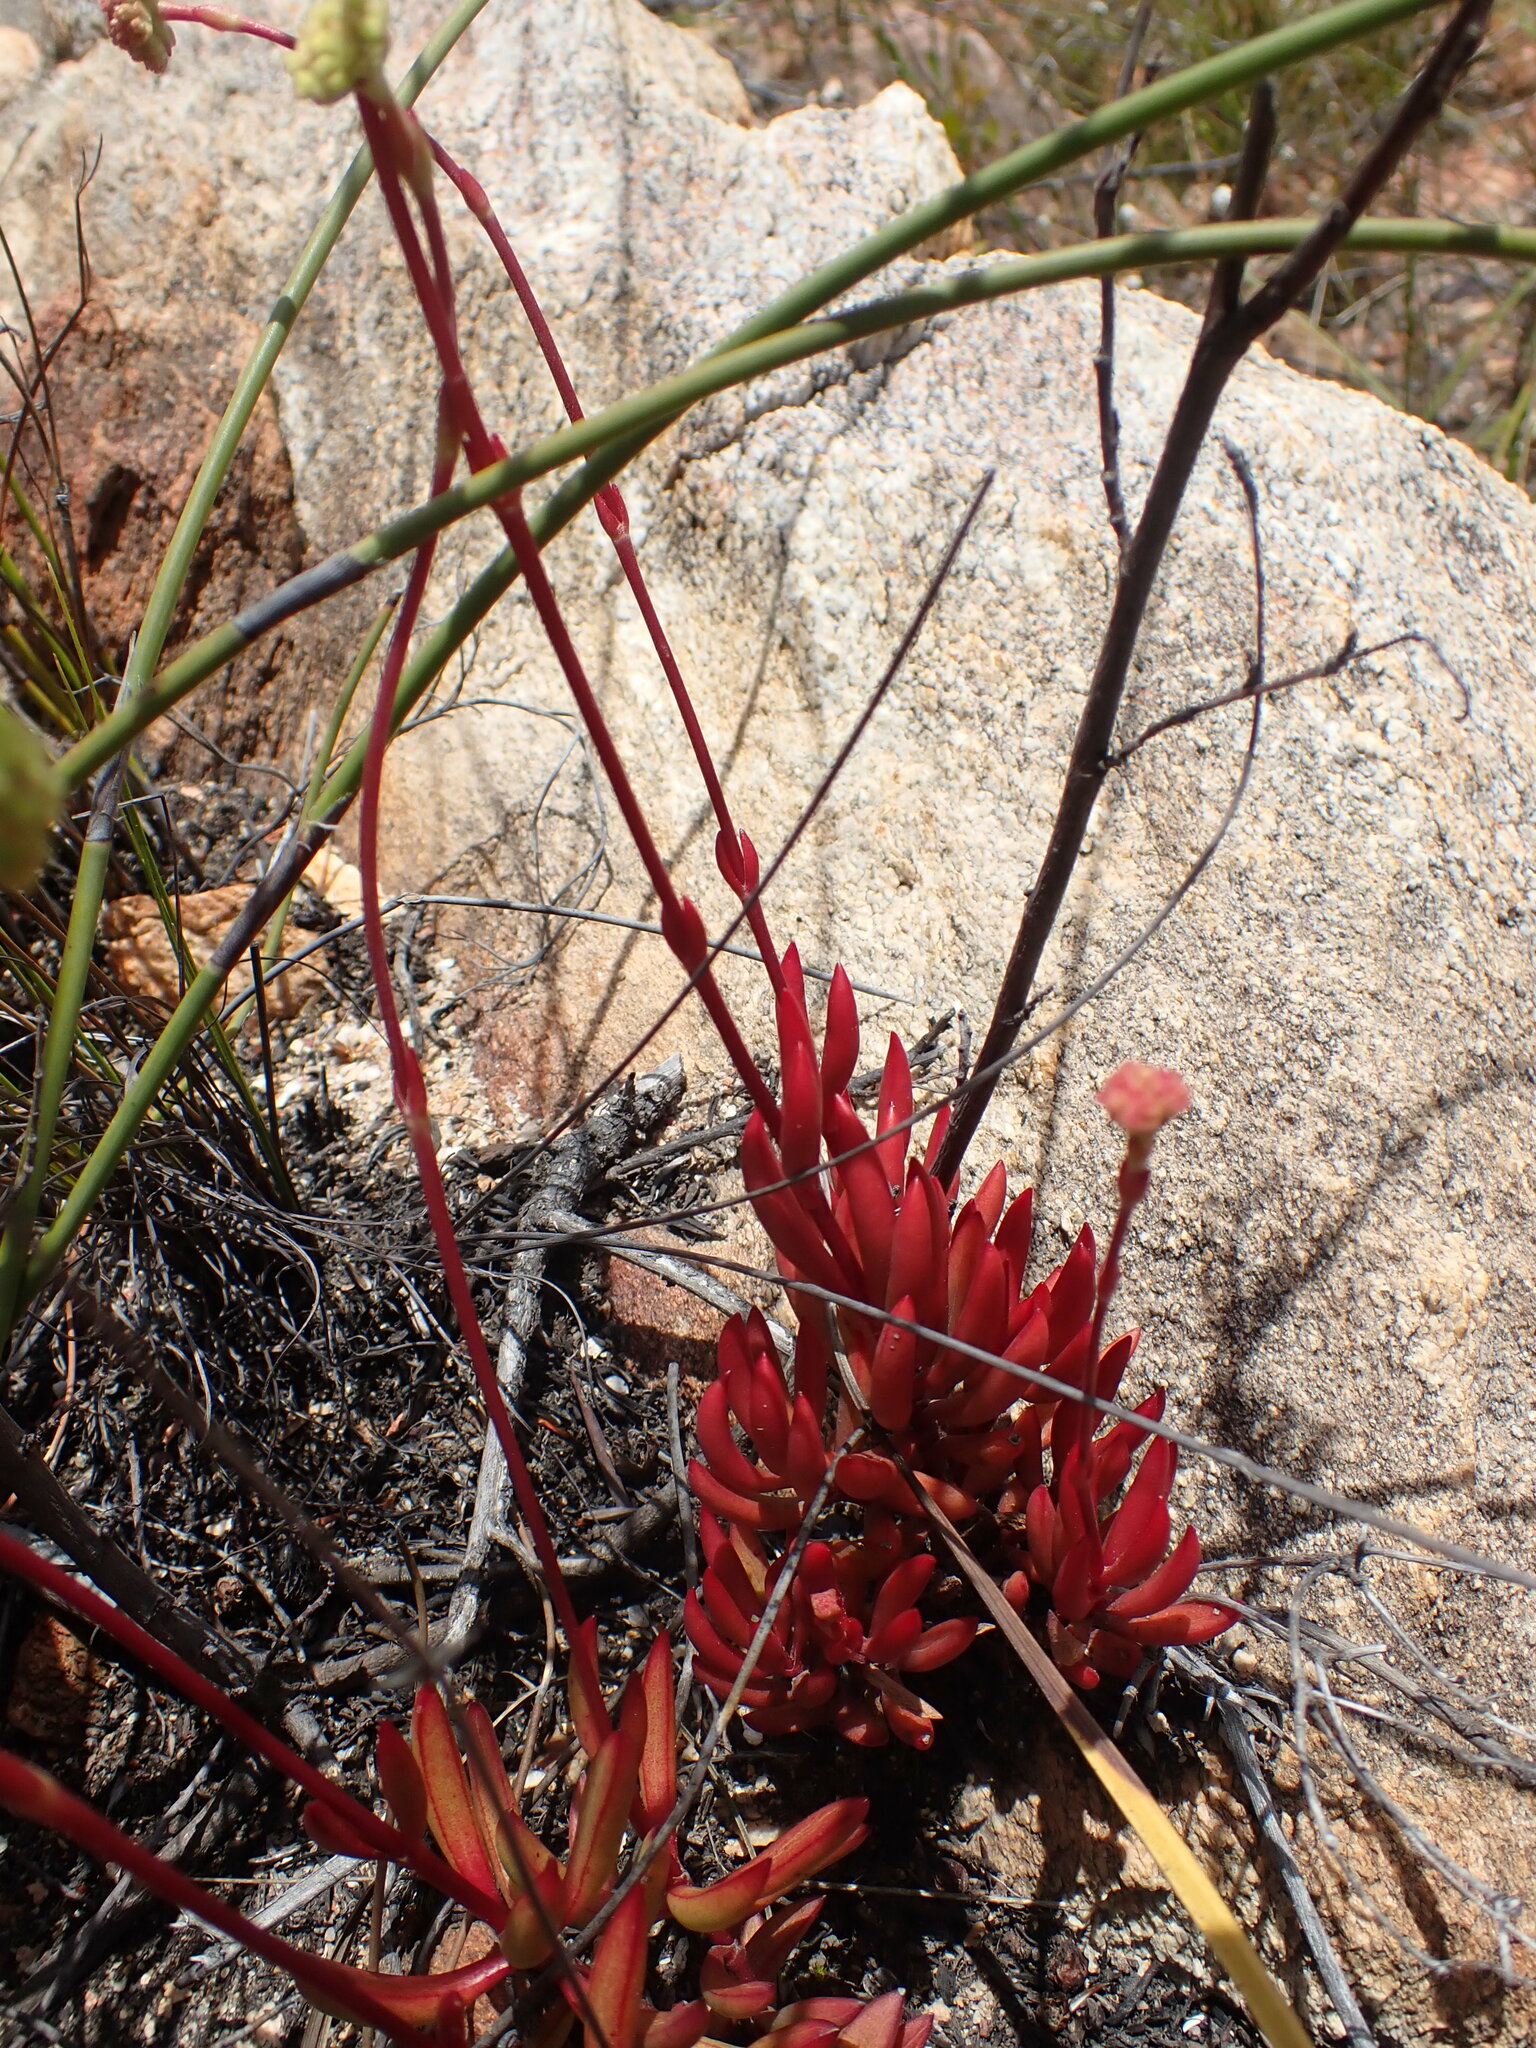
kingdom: Plantae
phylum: Tracheophyta
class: Magnoliopsida
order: Saxifragales
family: Crassulaceae
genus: Crassula
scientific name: Crassula atropurpurea
